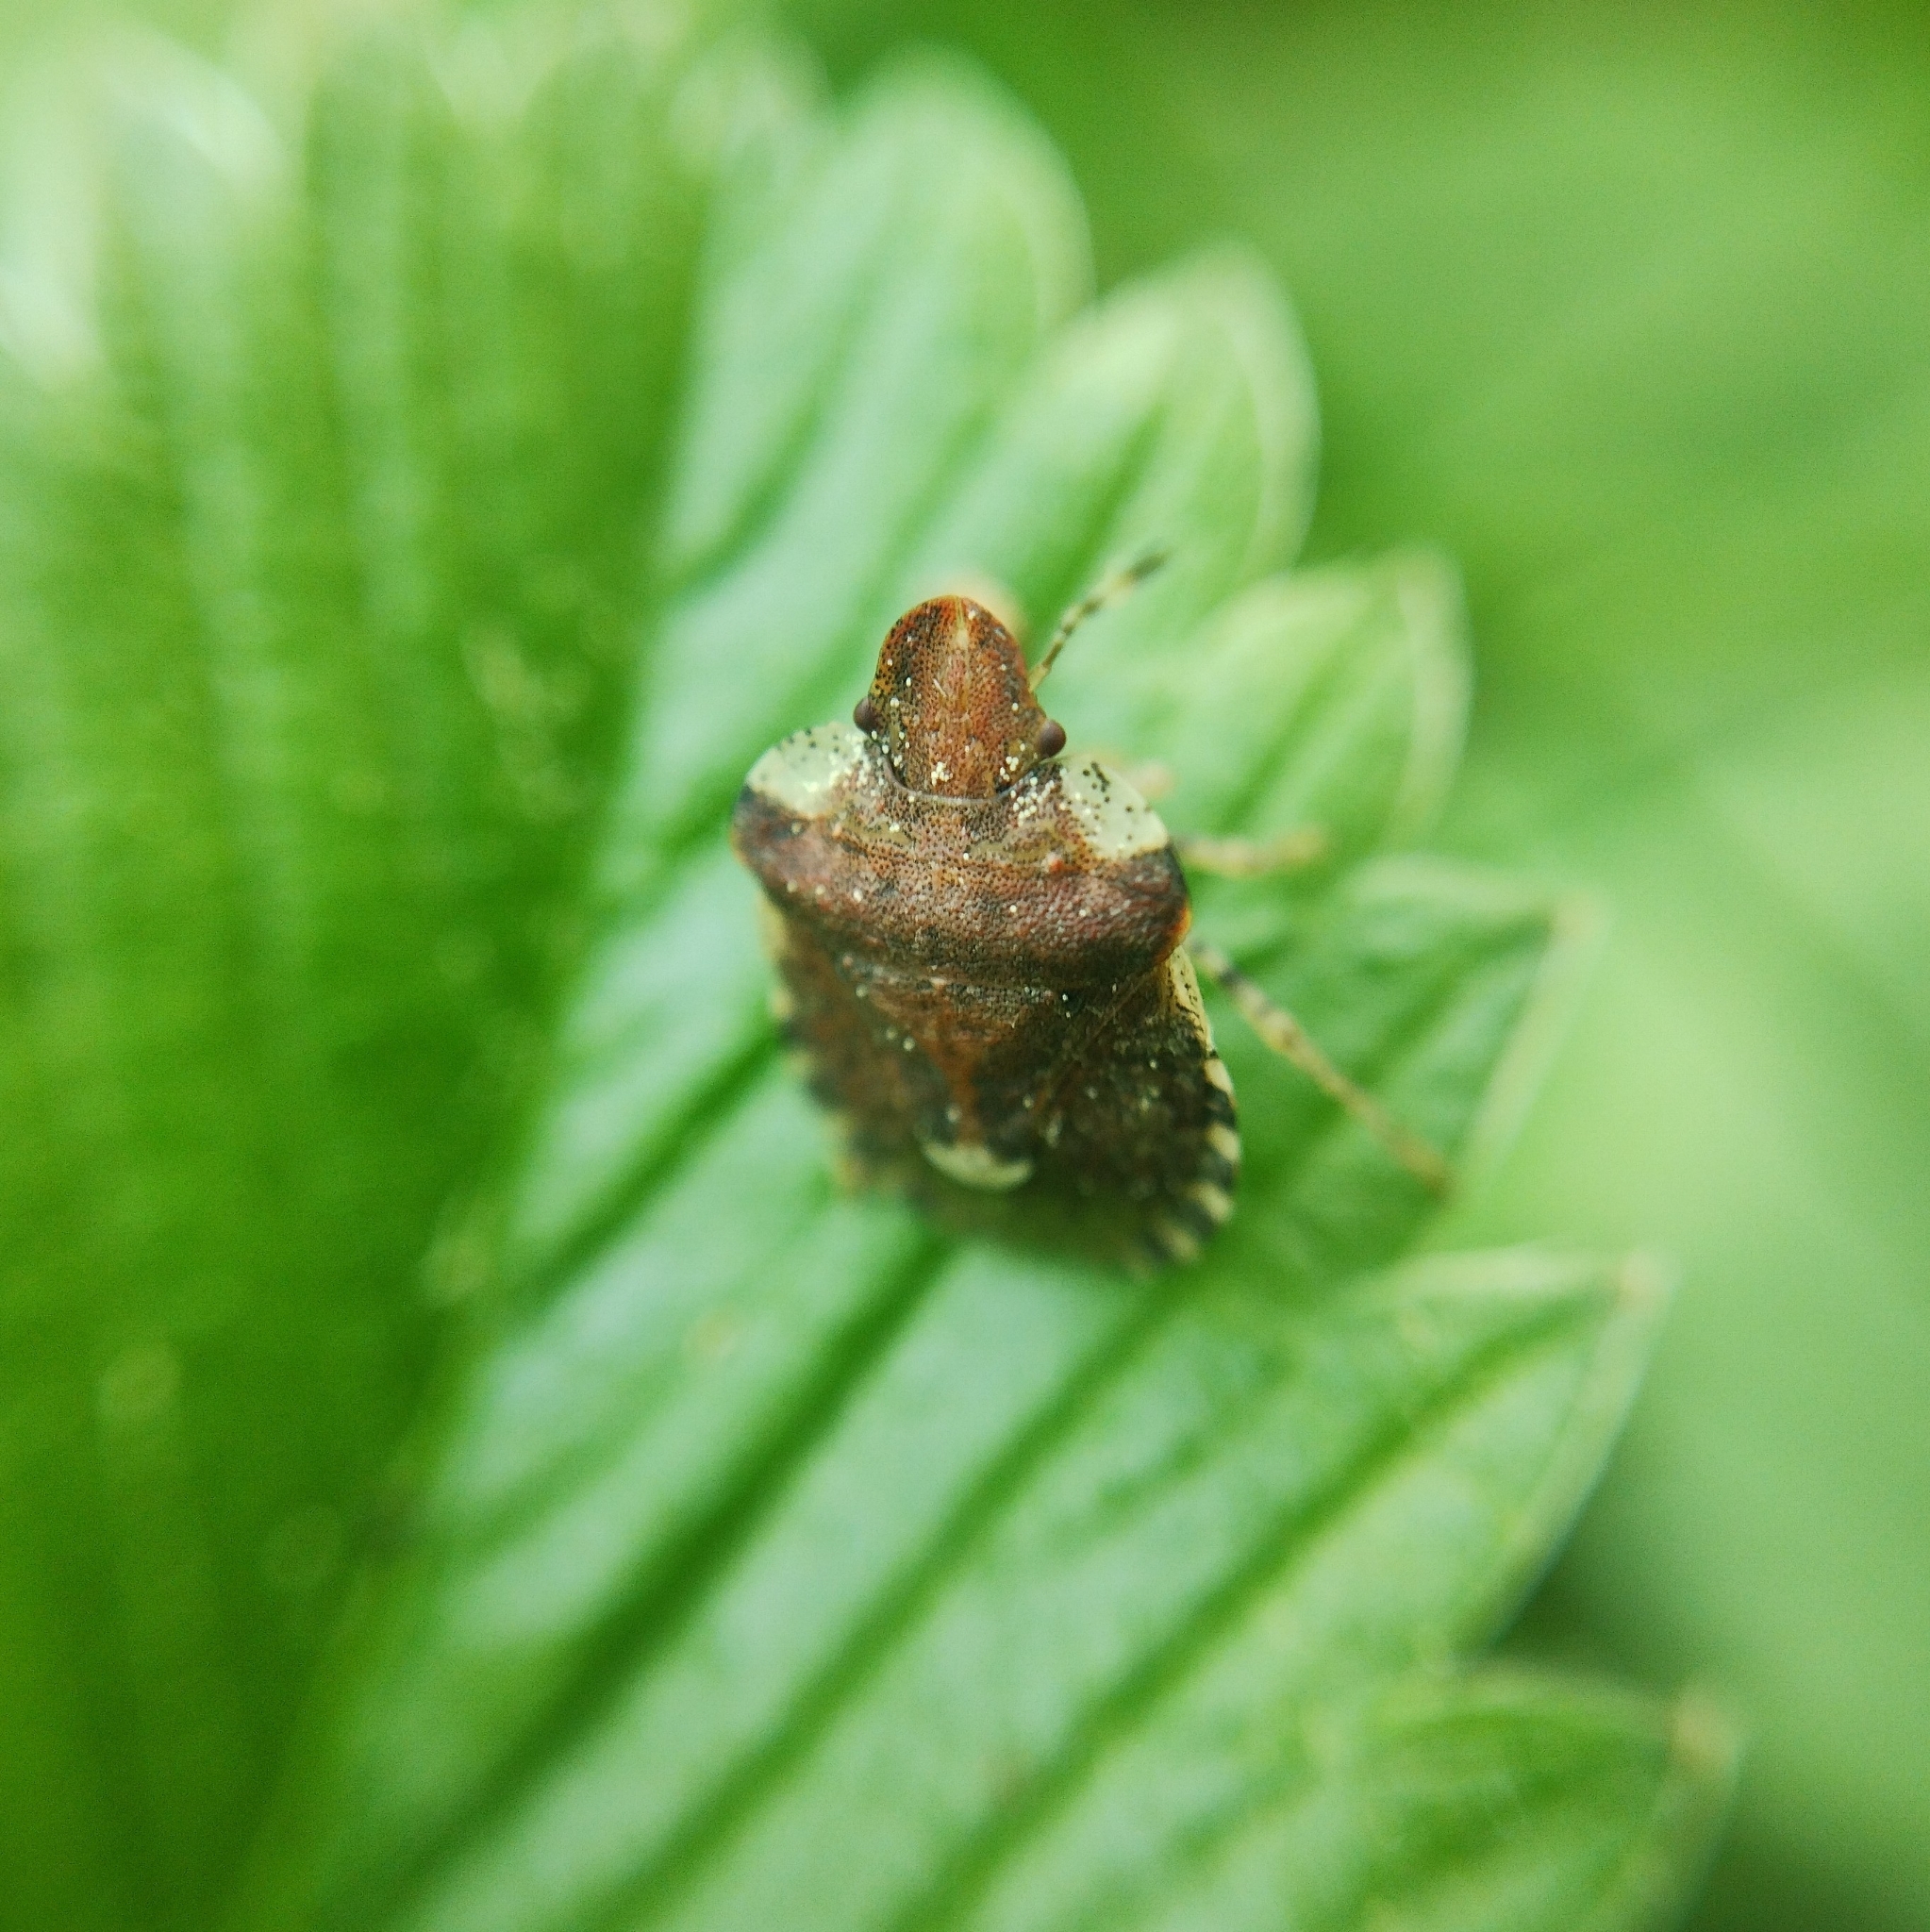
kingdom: Animalia
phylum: Arthropoda
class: Insecta
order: Hemiptera
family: Pentatomidae
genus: Dyroderes
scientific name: Dyroderes umbraculatus
